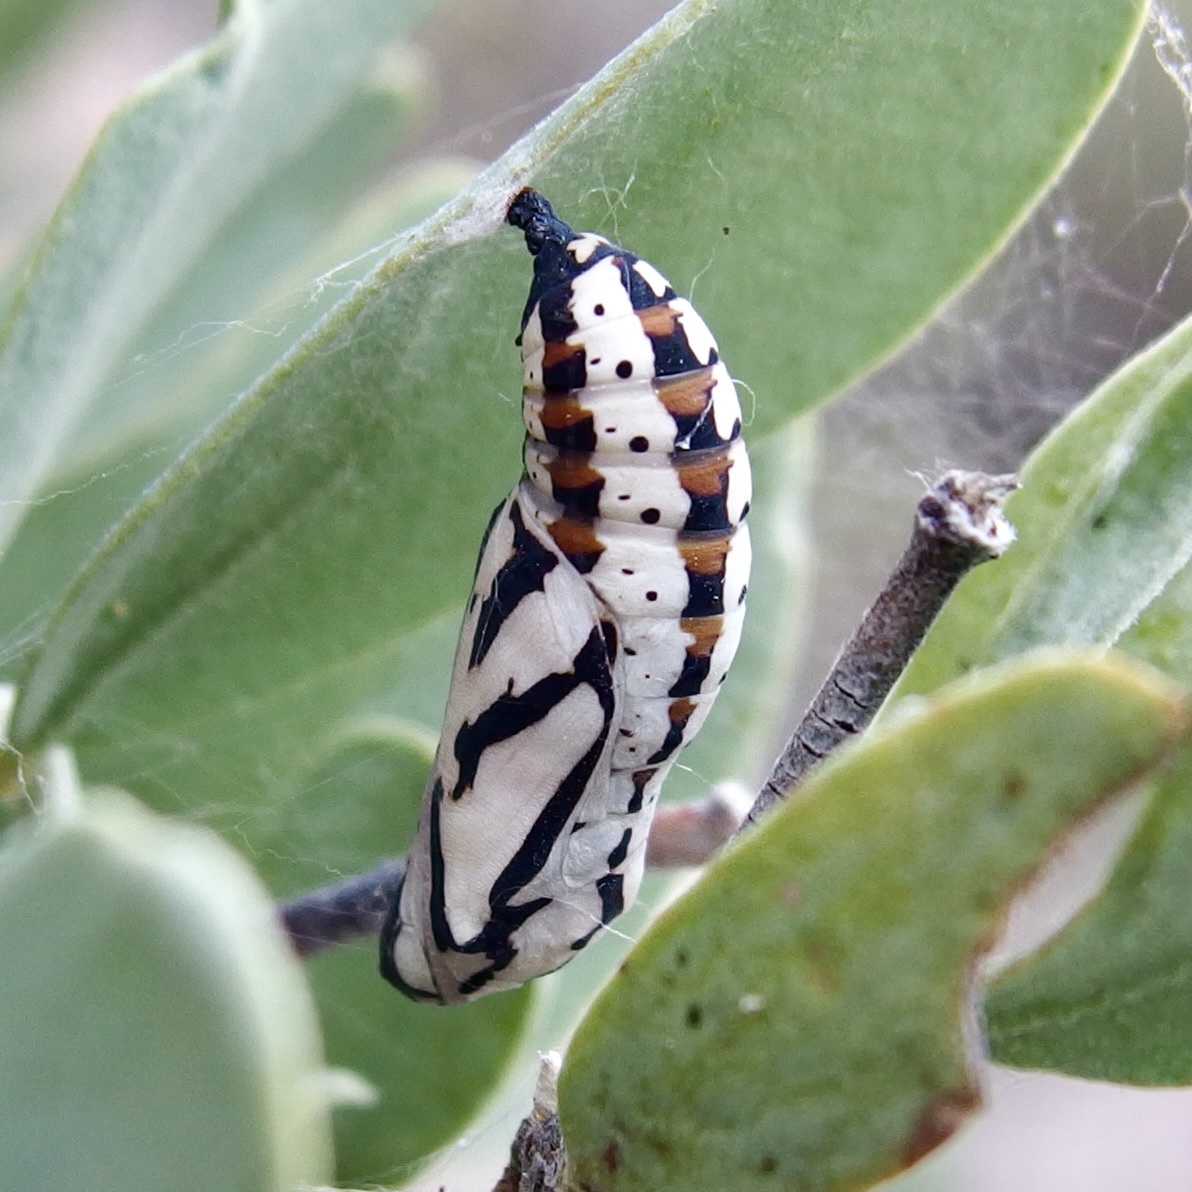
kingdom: Animalia
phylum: Arthropoda
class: Insecta
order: Lepidoptera
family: Nymphalidae
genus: Chlosyne
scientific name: Chlosyne eumeda
